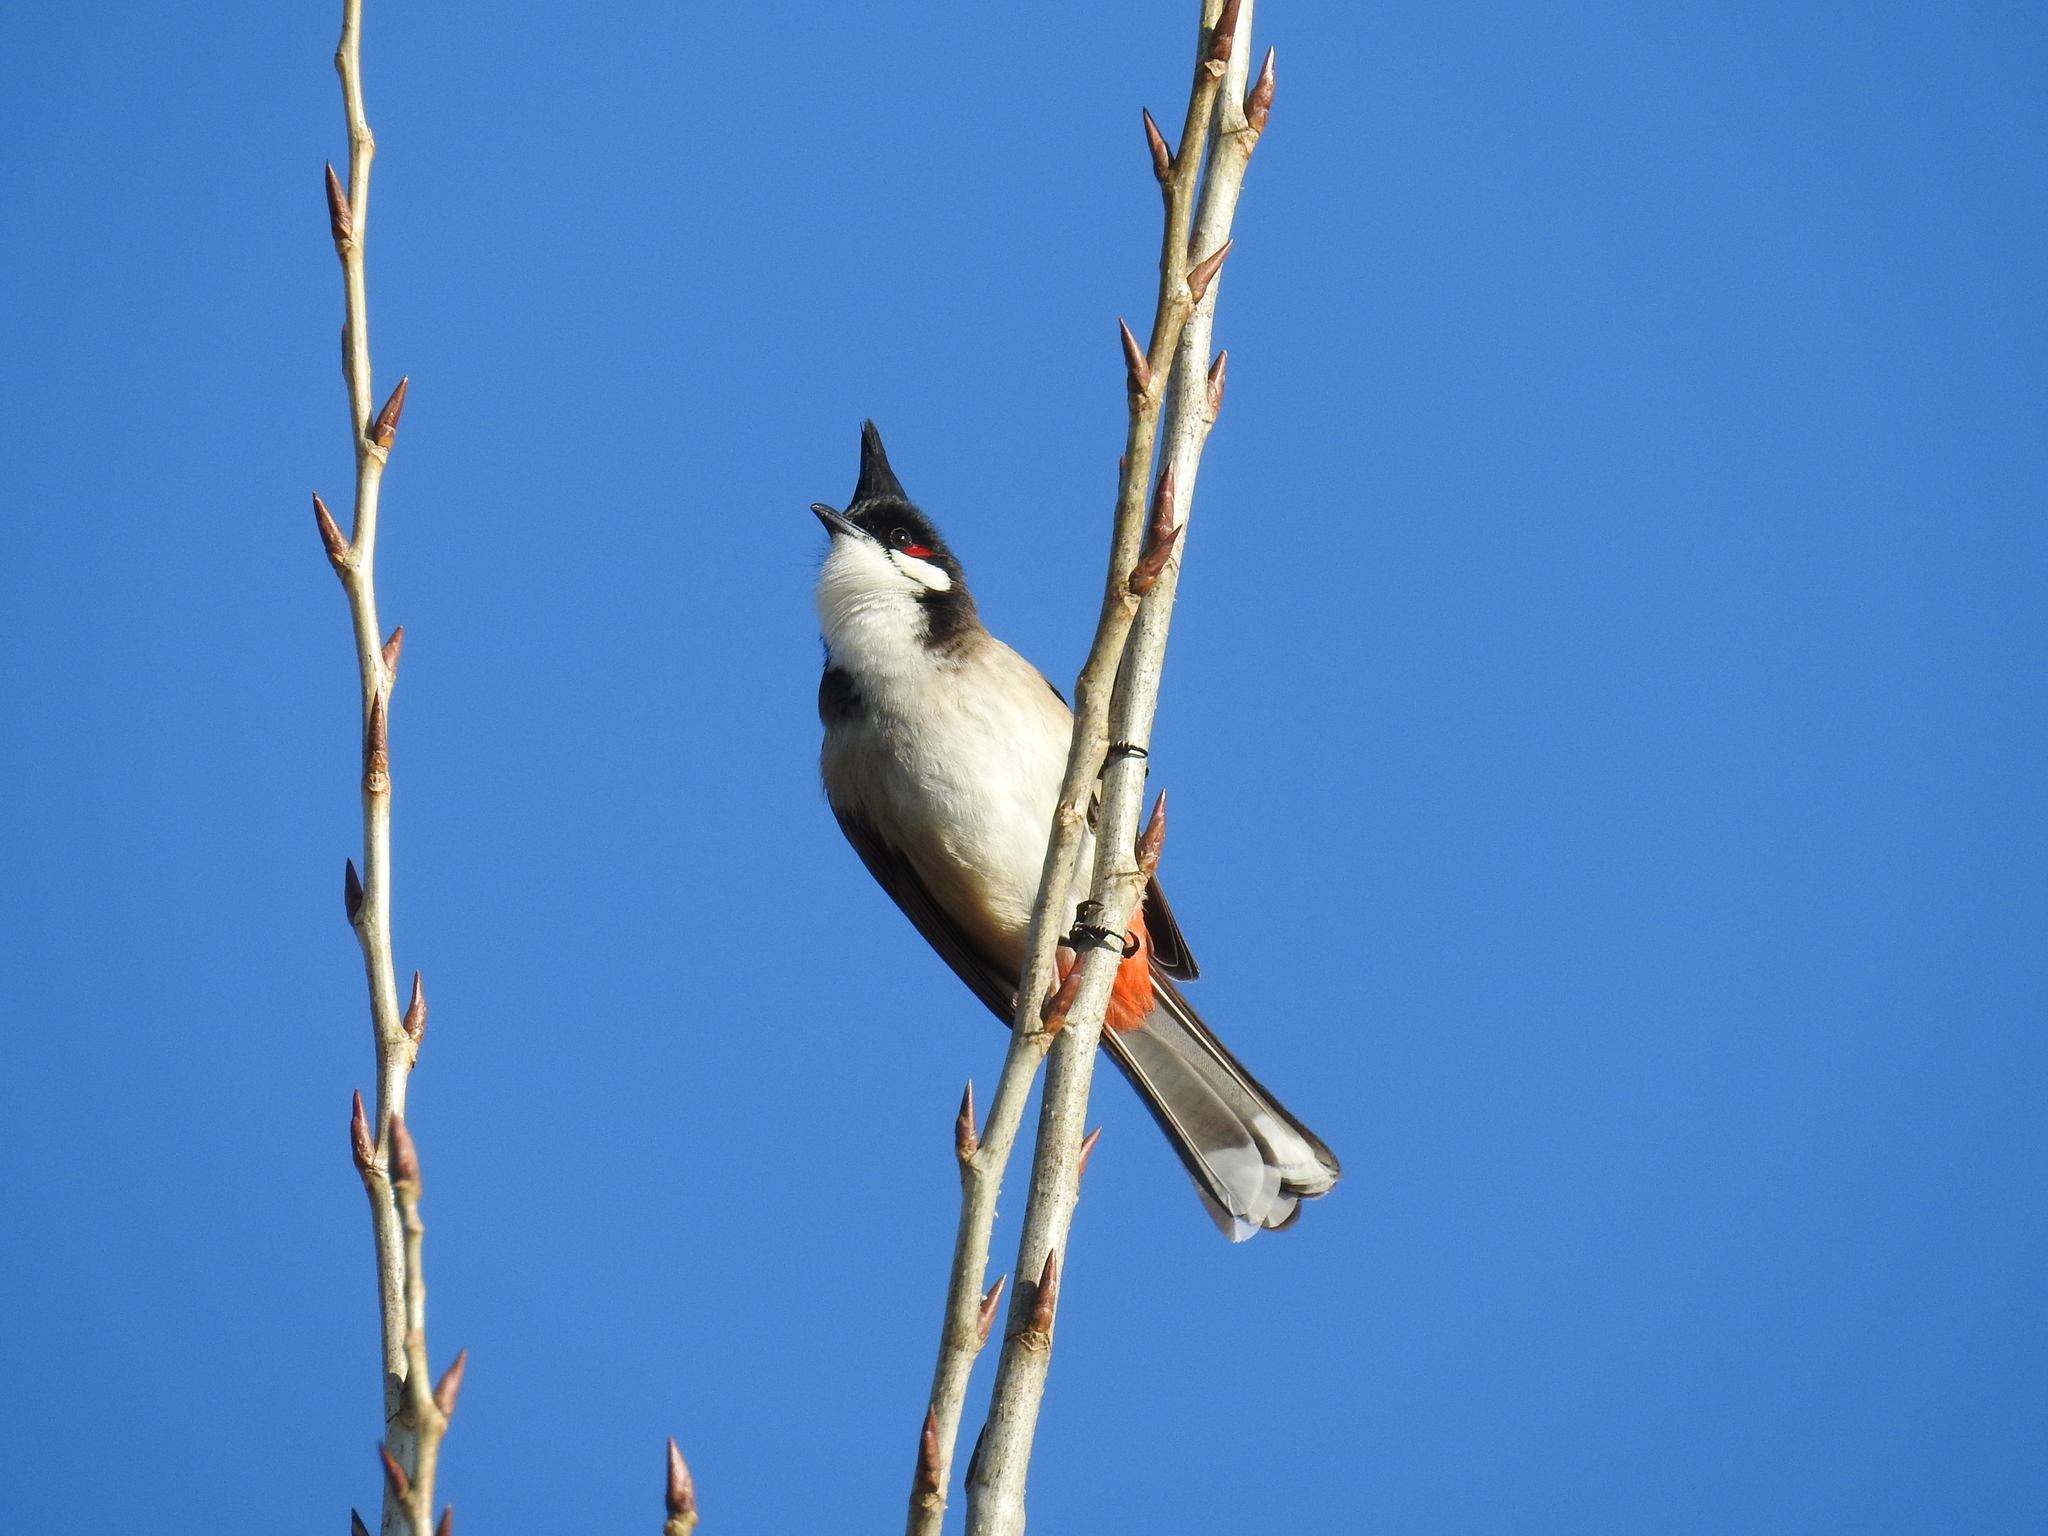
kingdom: Animalia
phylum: Chordata
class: Aves
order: Passeriformes
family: Pycnonotidae
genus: Pycnonotus
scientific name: Pycnonotus jocosus
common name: Red-whiskered bulbul
